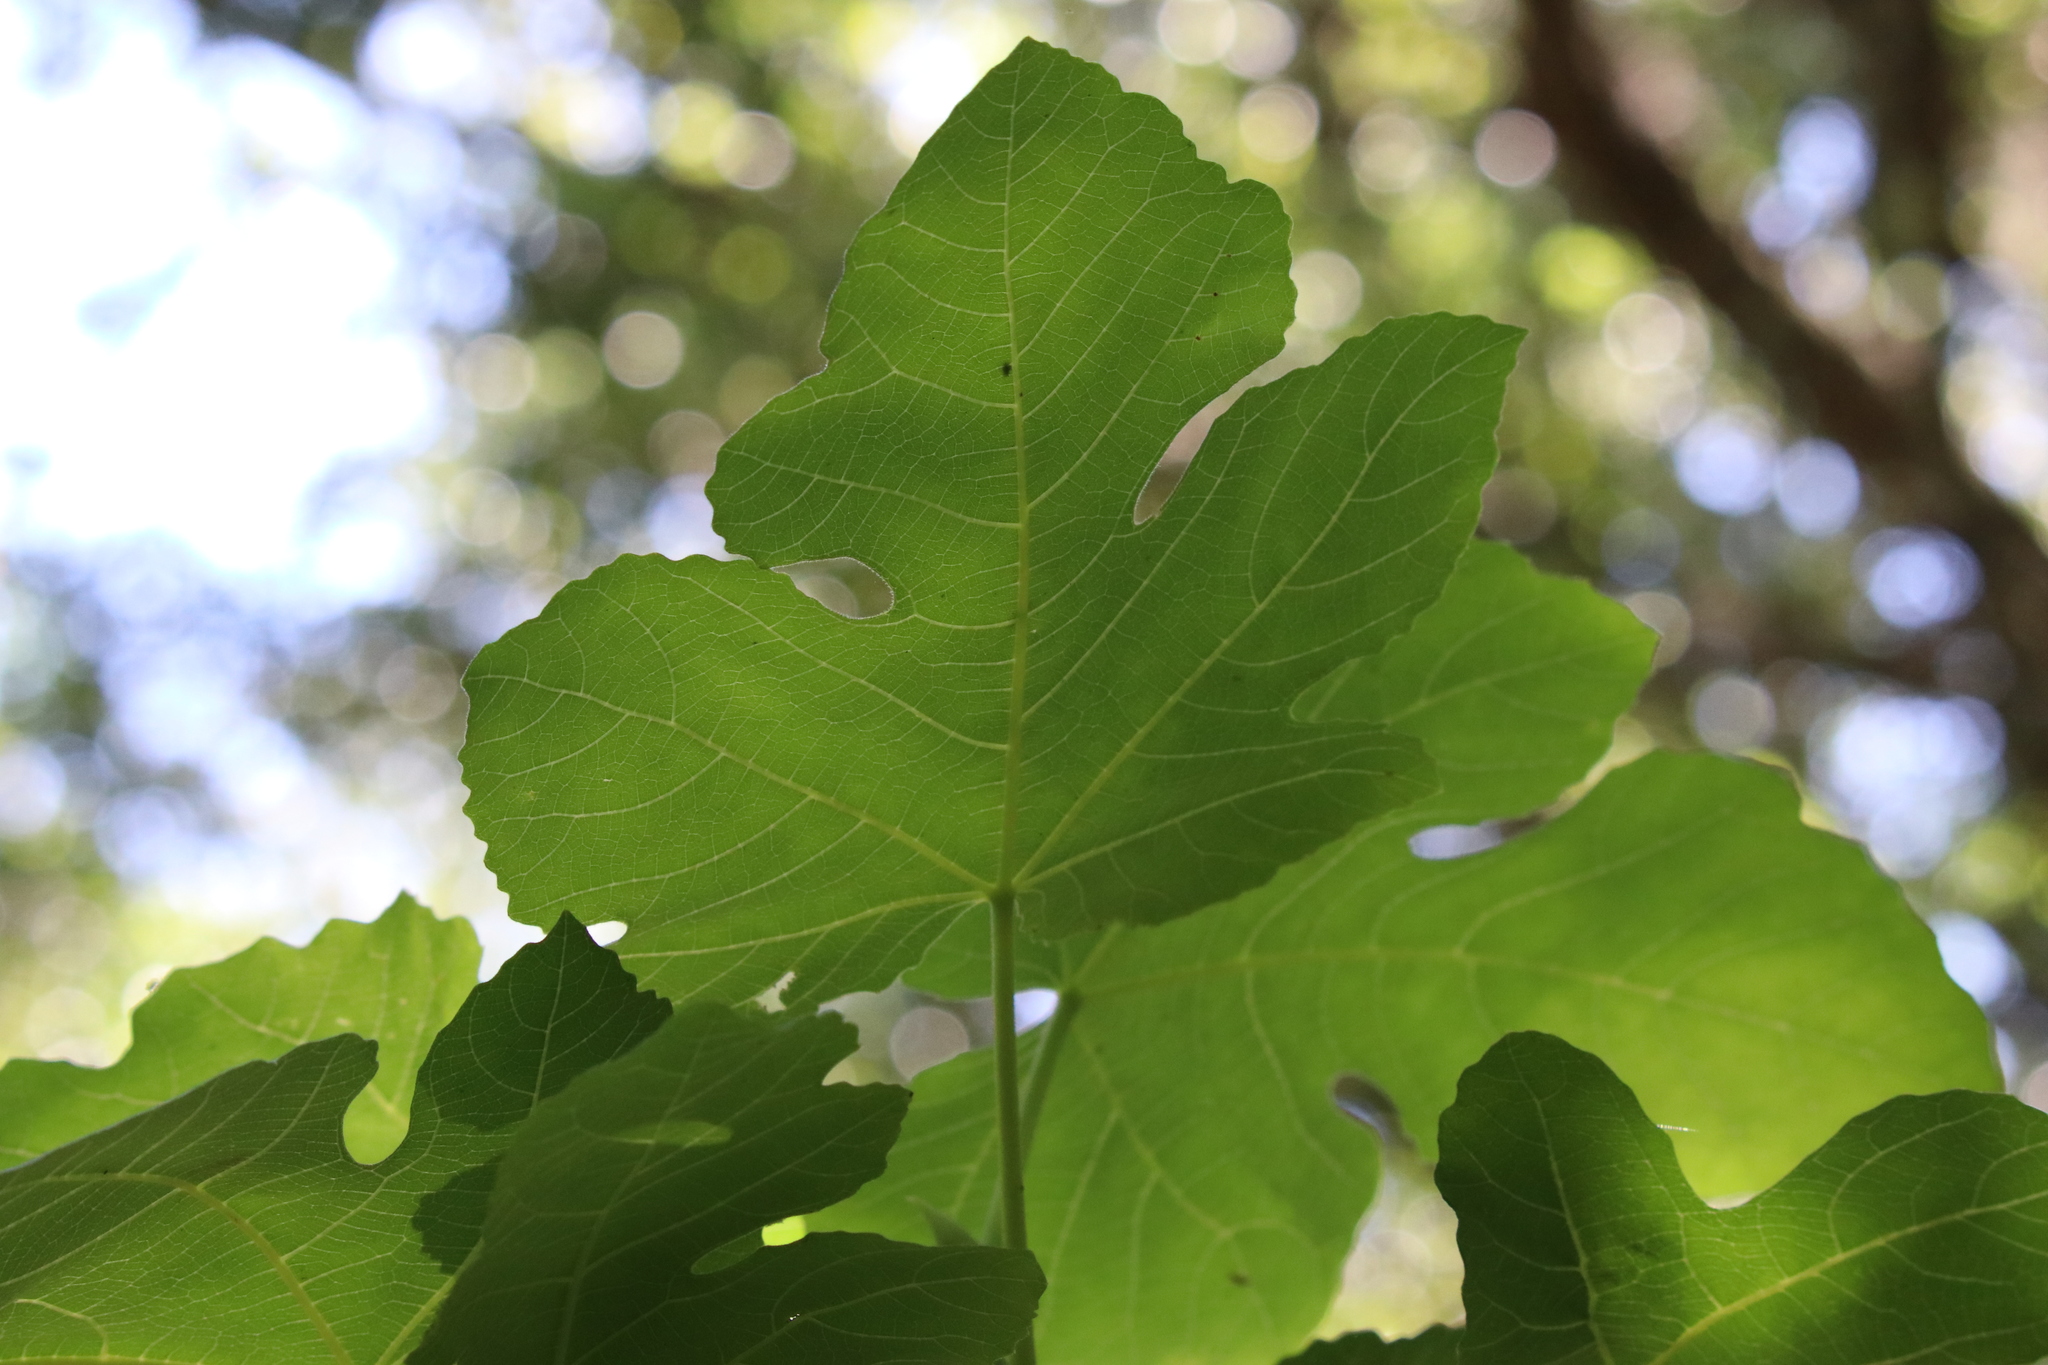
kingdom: Plantae
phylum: Tracheophyta
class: Magnoliopsida
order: Rosales
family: Moraceae
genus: Ficus
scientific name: Ficus carica
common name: Fig
